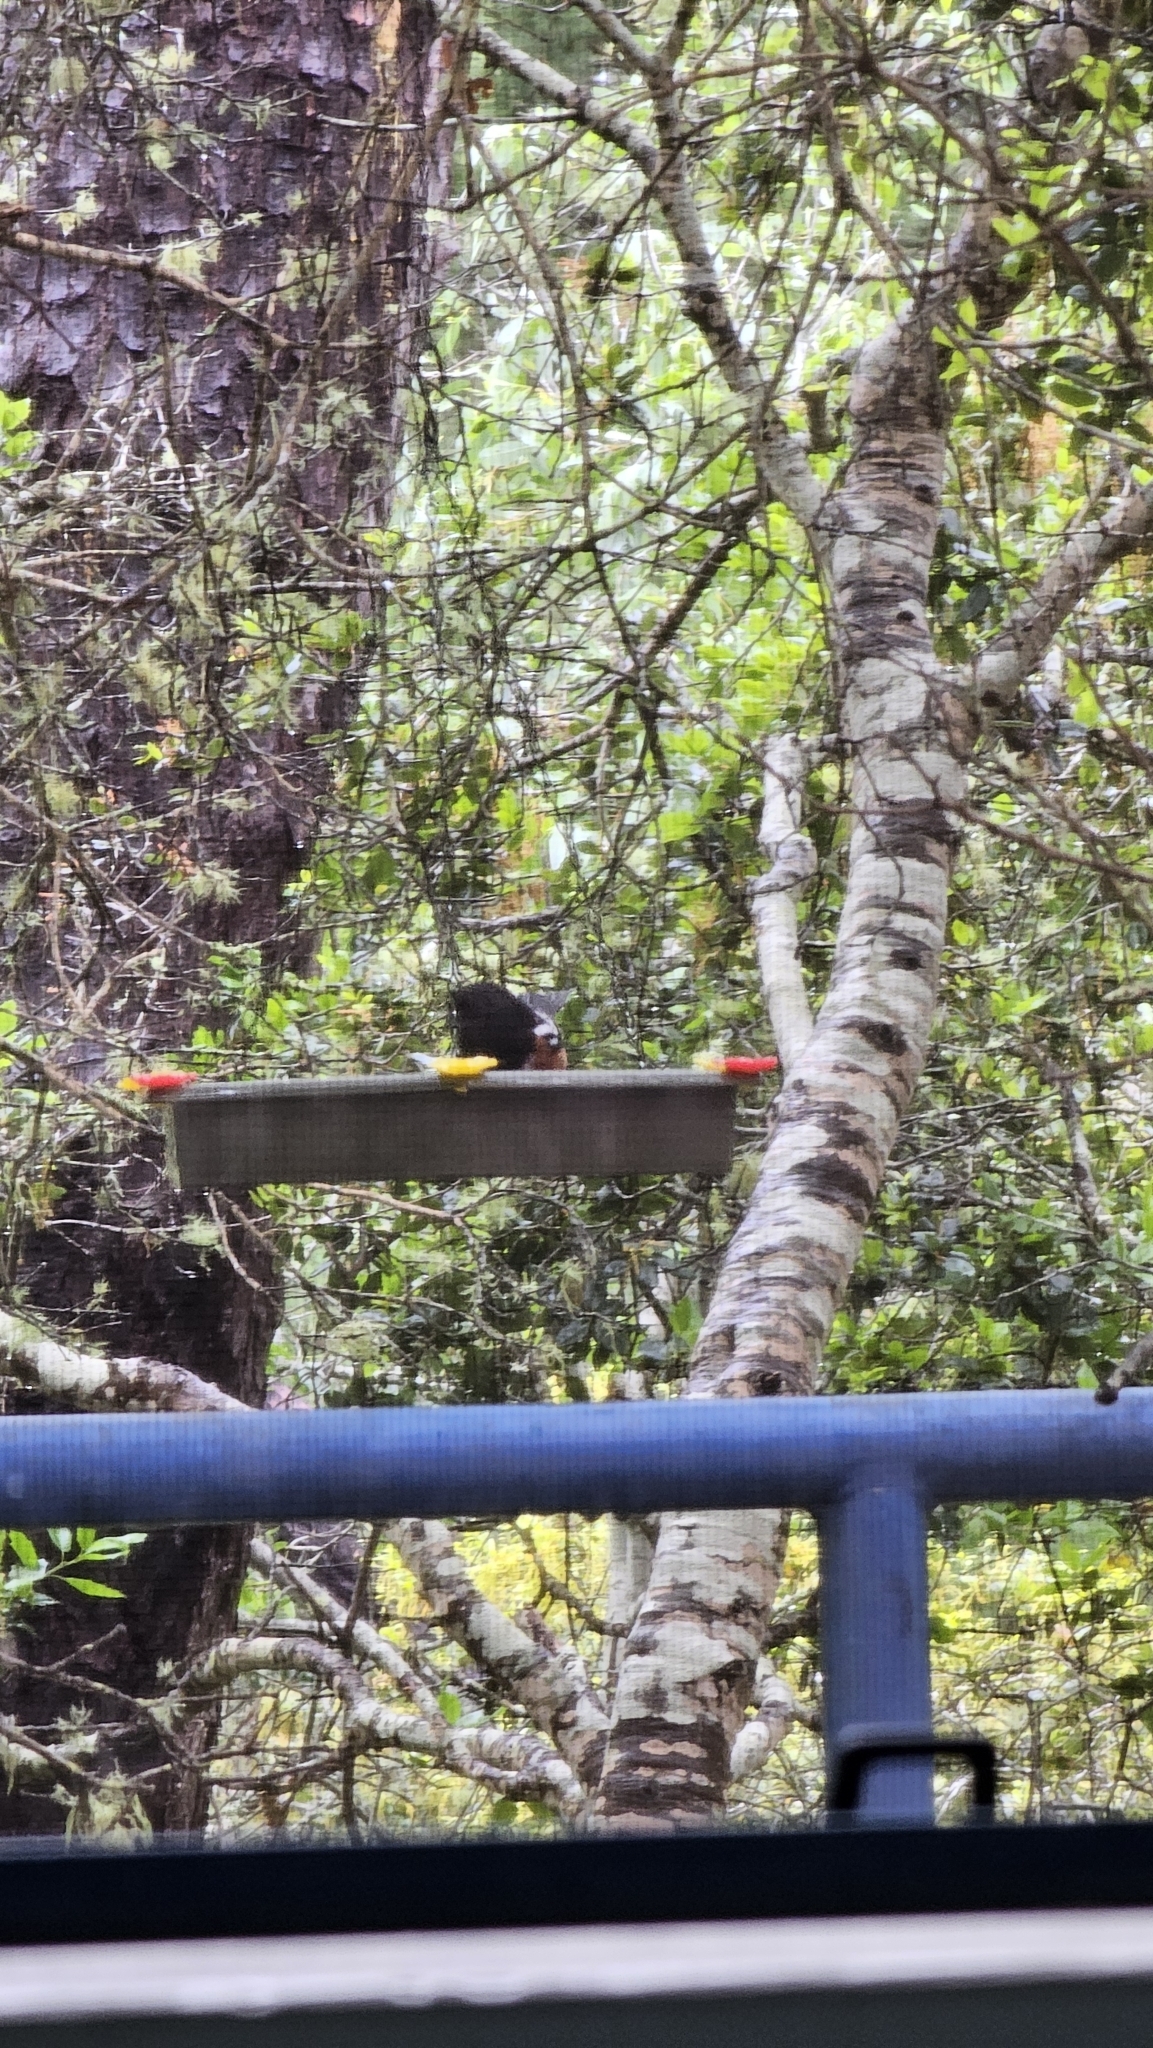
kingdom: Animalia
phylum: Chordata
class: Aves
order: Passeriformes
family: Passerellidae
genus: Pipilo
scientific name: Pipilo maculatus
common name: Spotted towhee
